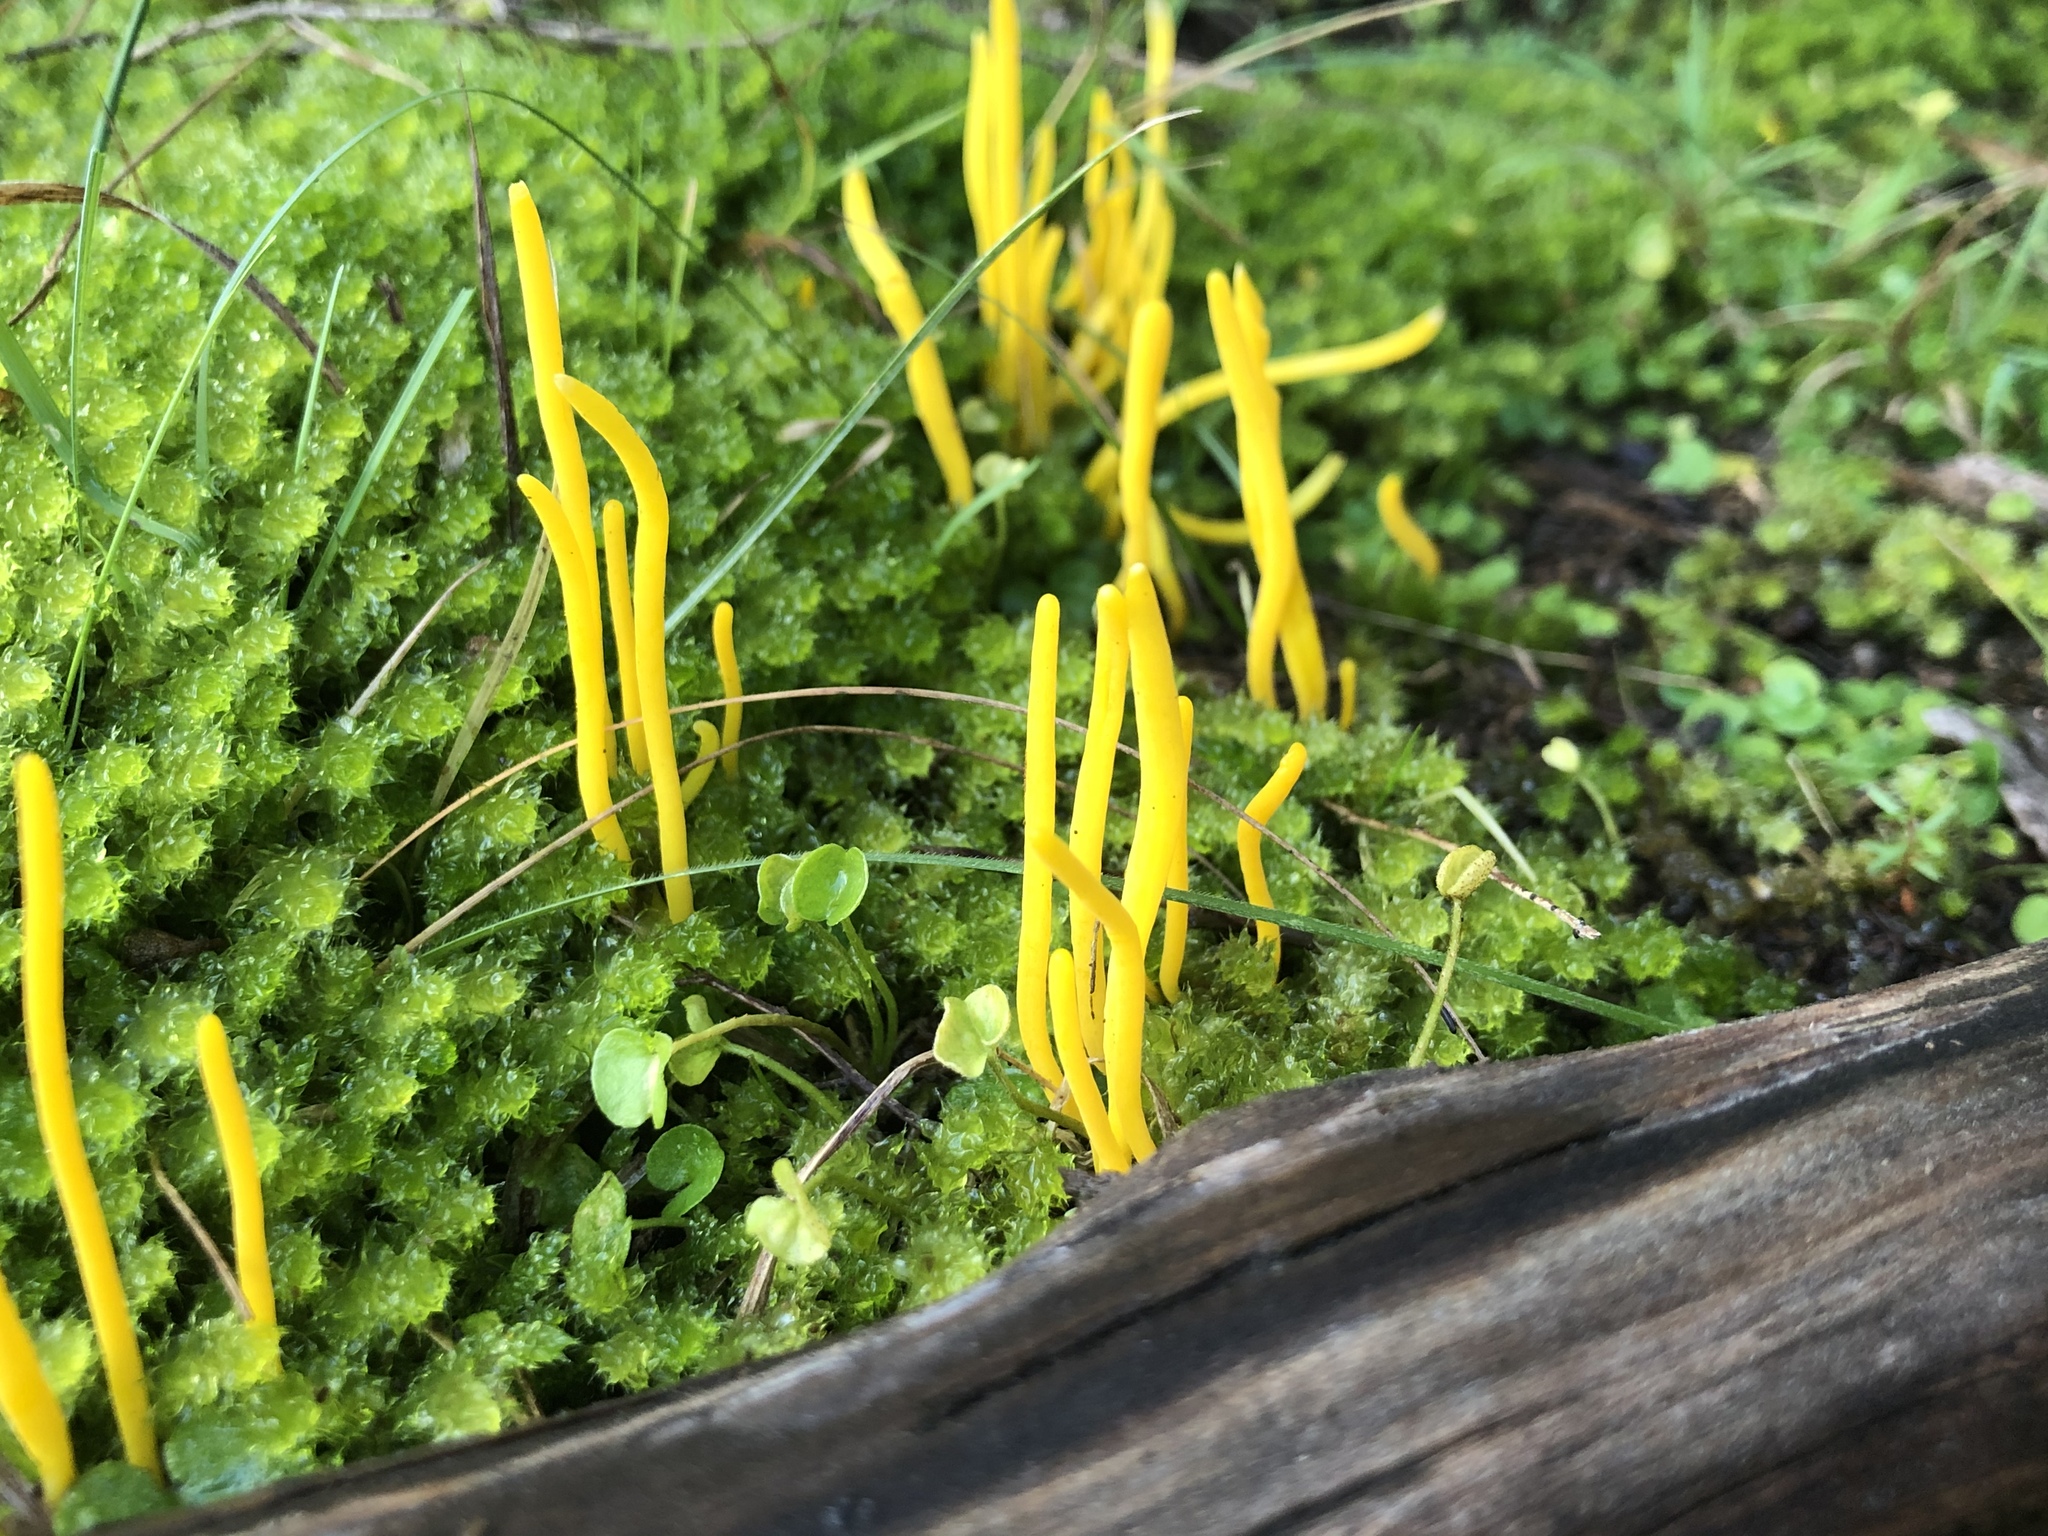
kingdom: Fungi
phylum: Basidiomycota
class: Agaricomycetes
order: Agaricales
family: Clavariaceae
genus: Clavulinopsis
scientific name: Clavulinopsis amoena
